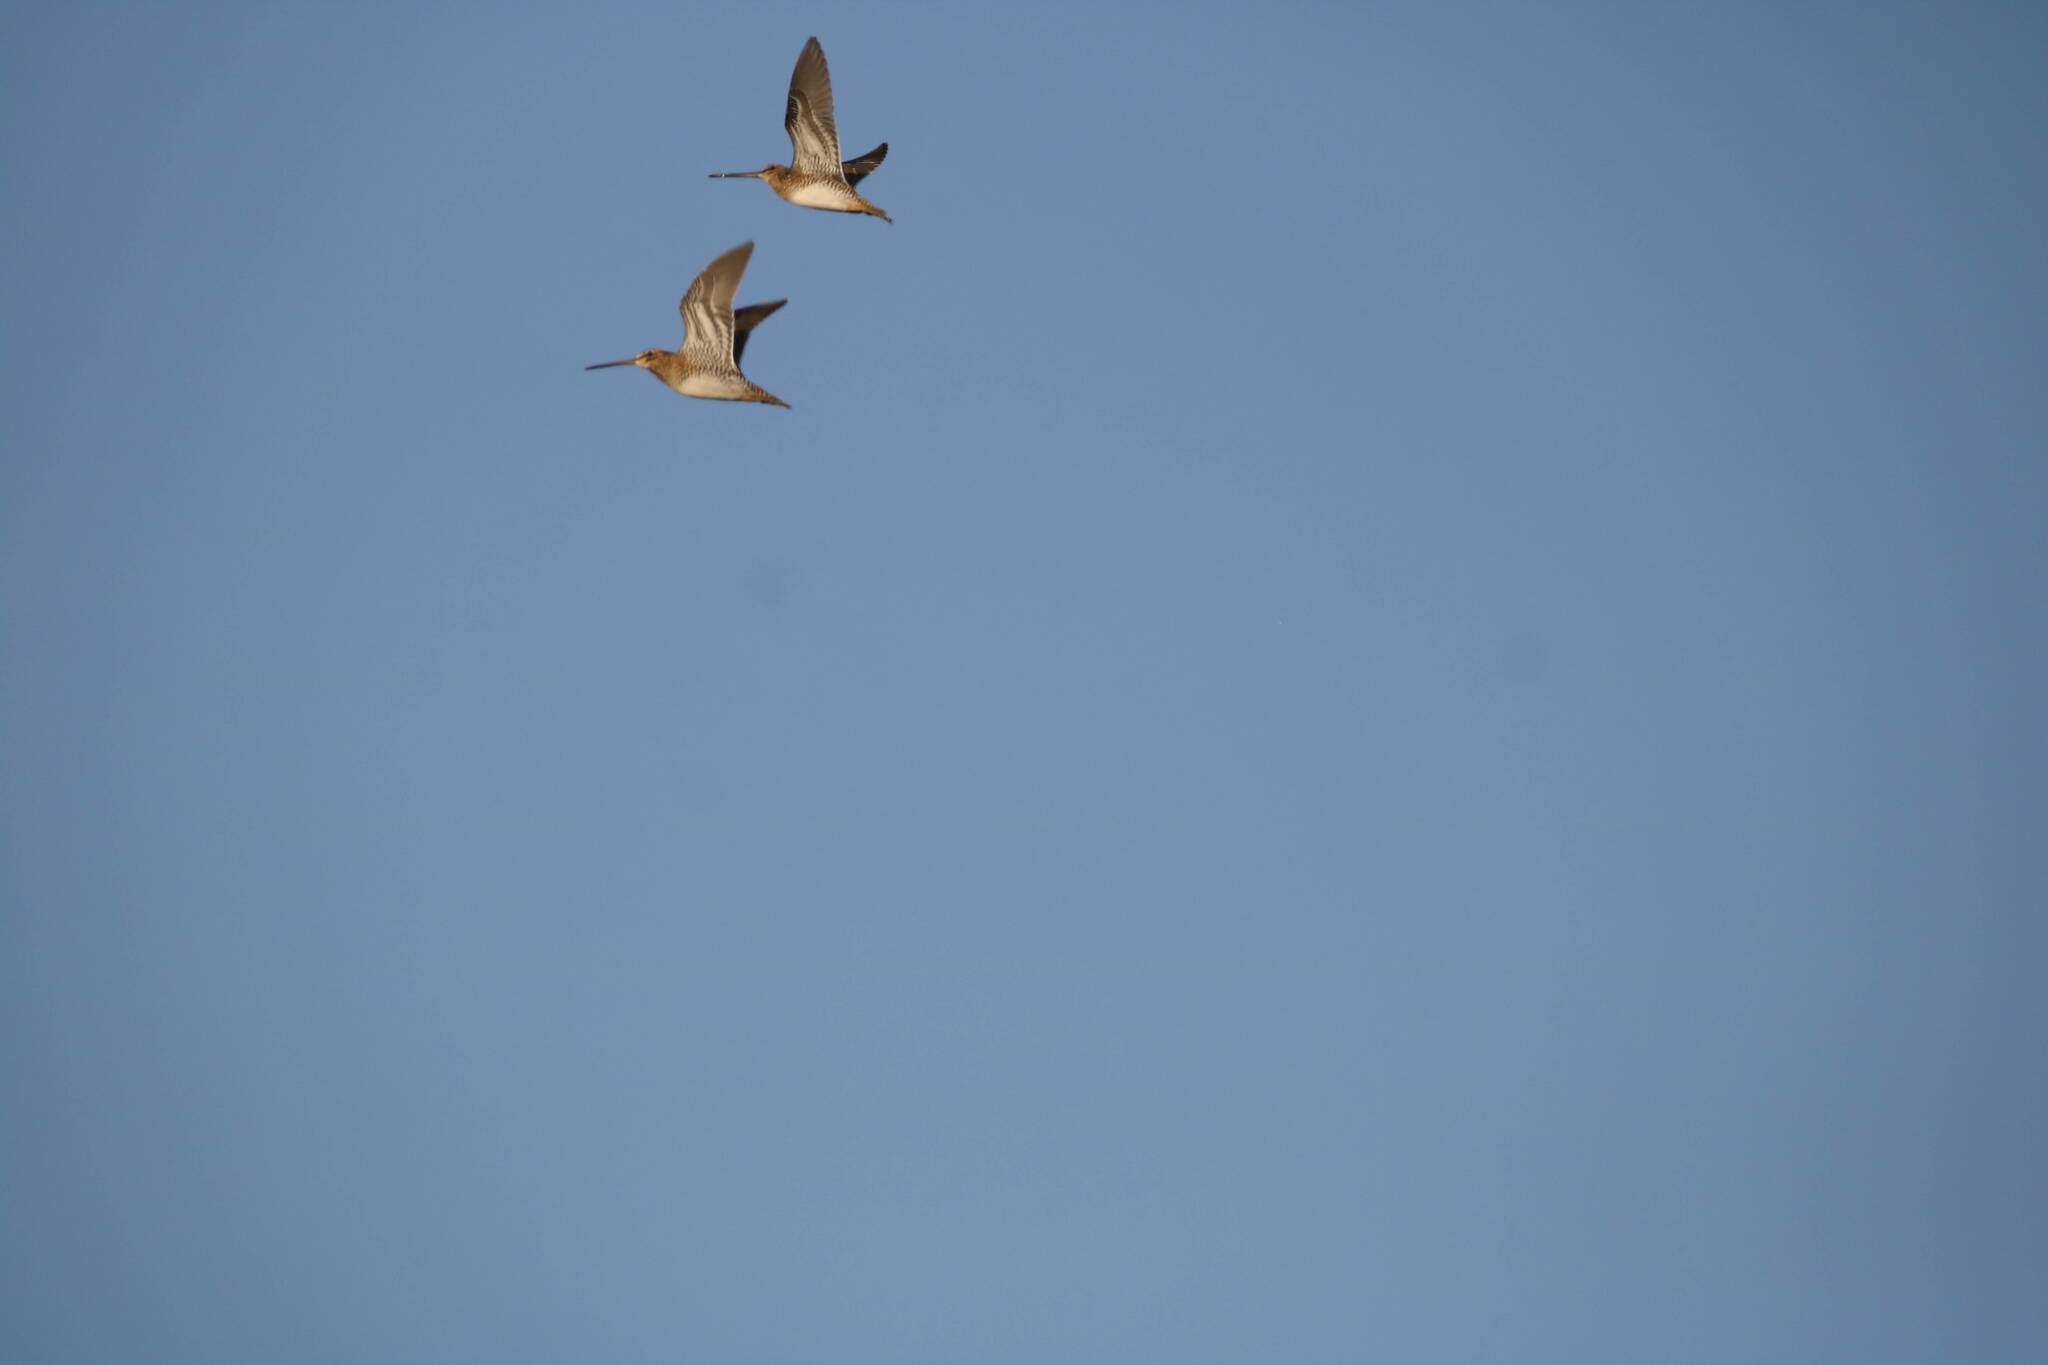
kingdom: Animalia
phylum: Chordata
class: Aves
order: Charadriiformes
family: Scolopacidae
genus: Gallinago
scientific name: Gallinago gallinago
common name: Common snipe
